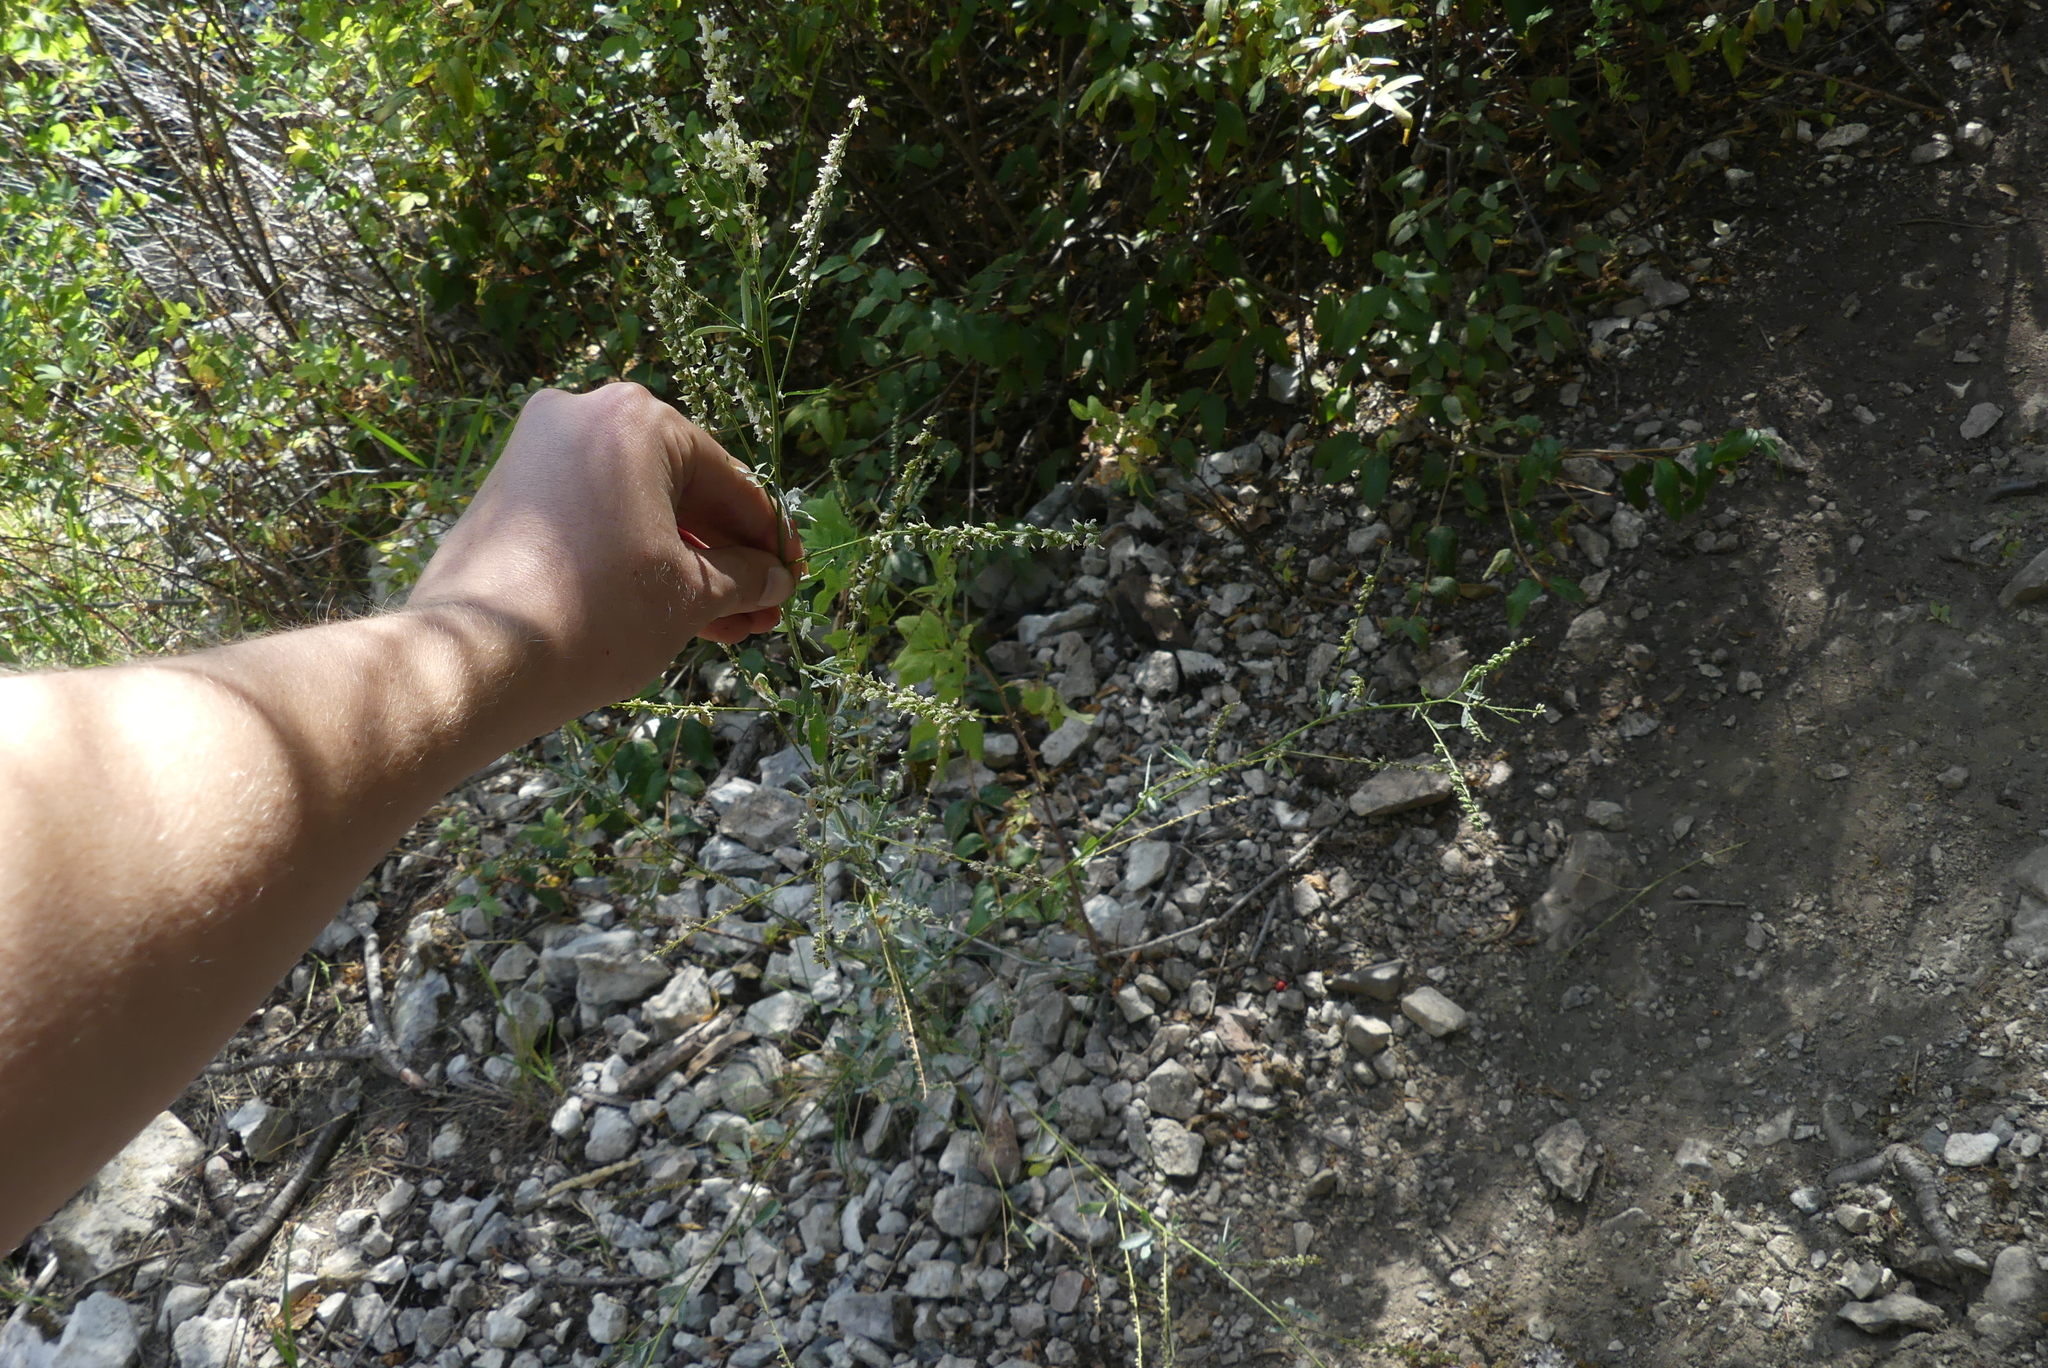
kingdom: Plantae
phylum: Tracheophyta
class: Magnoliopsida
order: Fabales
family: Fabaceae
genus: Melilotus
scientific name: Melilotus albus
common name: White melilot
